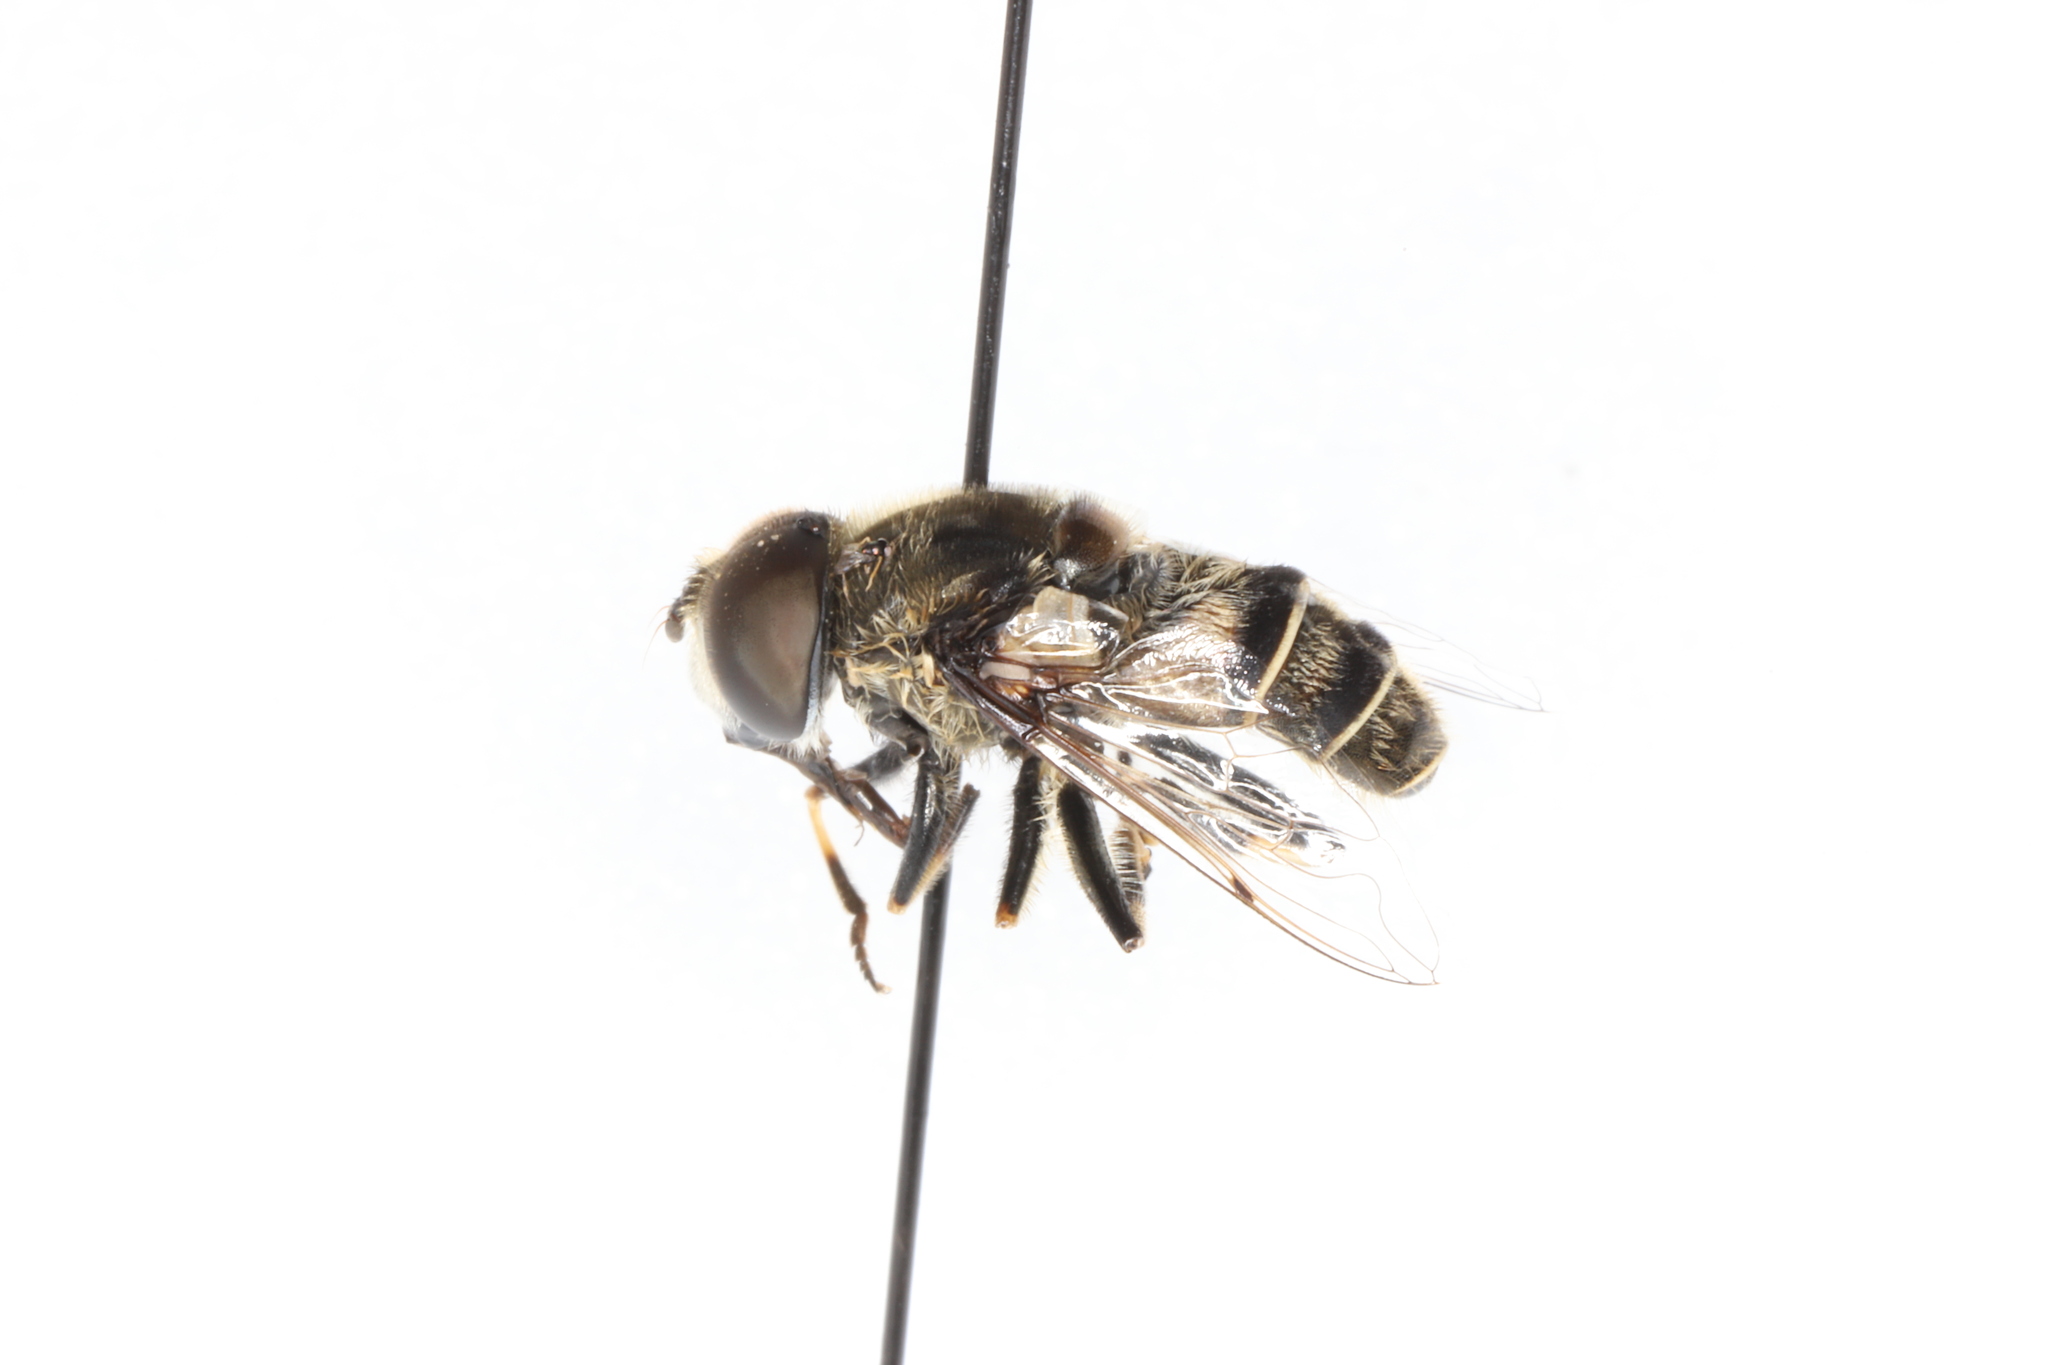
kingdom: Animalia
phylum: Arthropoda
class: Insecta
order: Diptera
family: Syrphidae
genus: Eristalis
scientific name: Eristalis dimidiata
